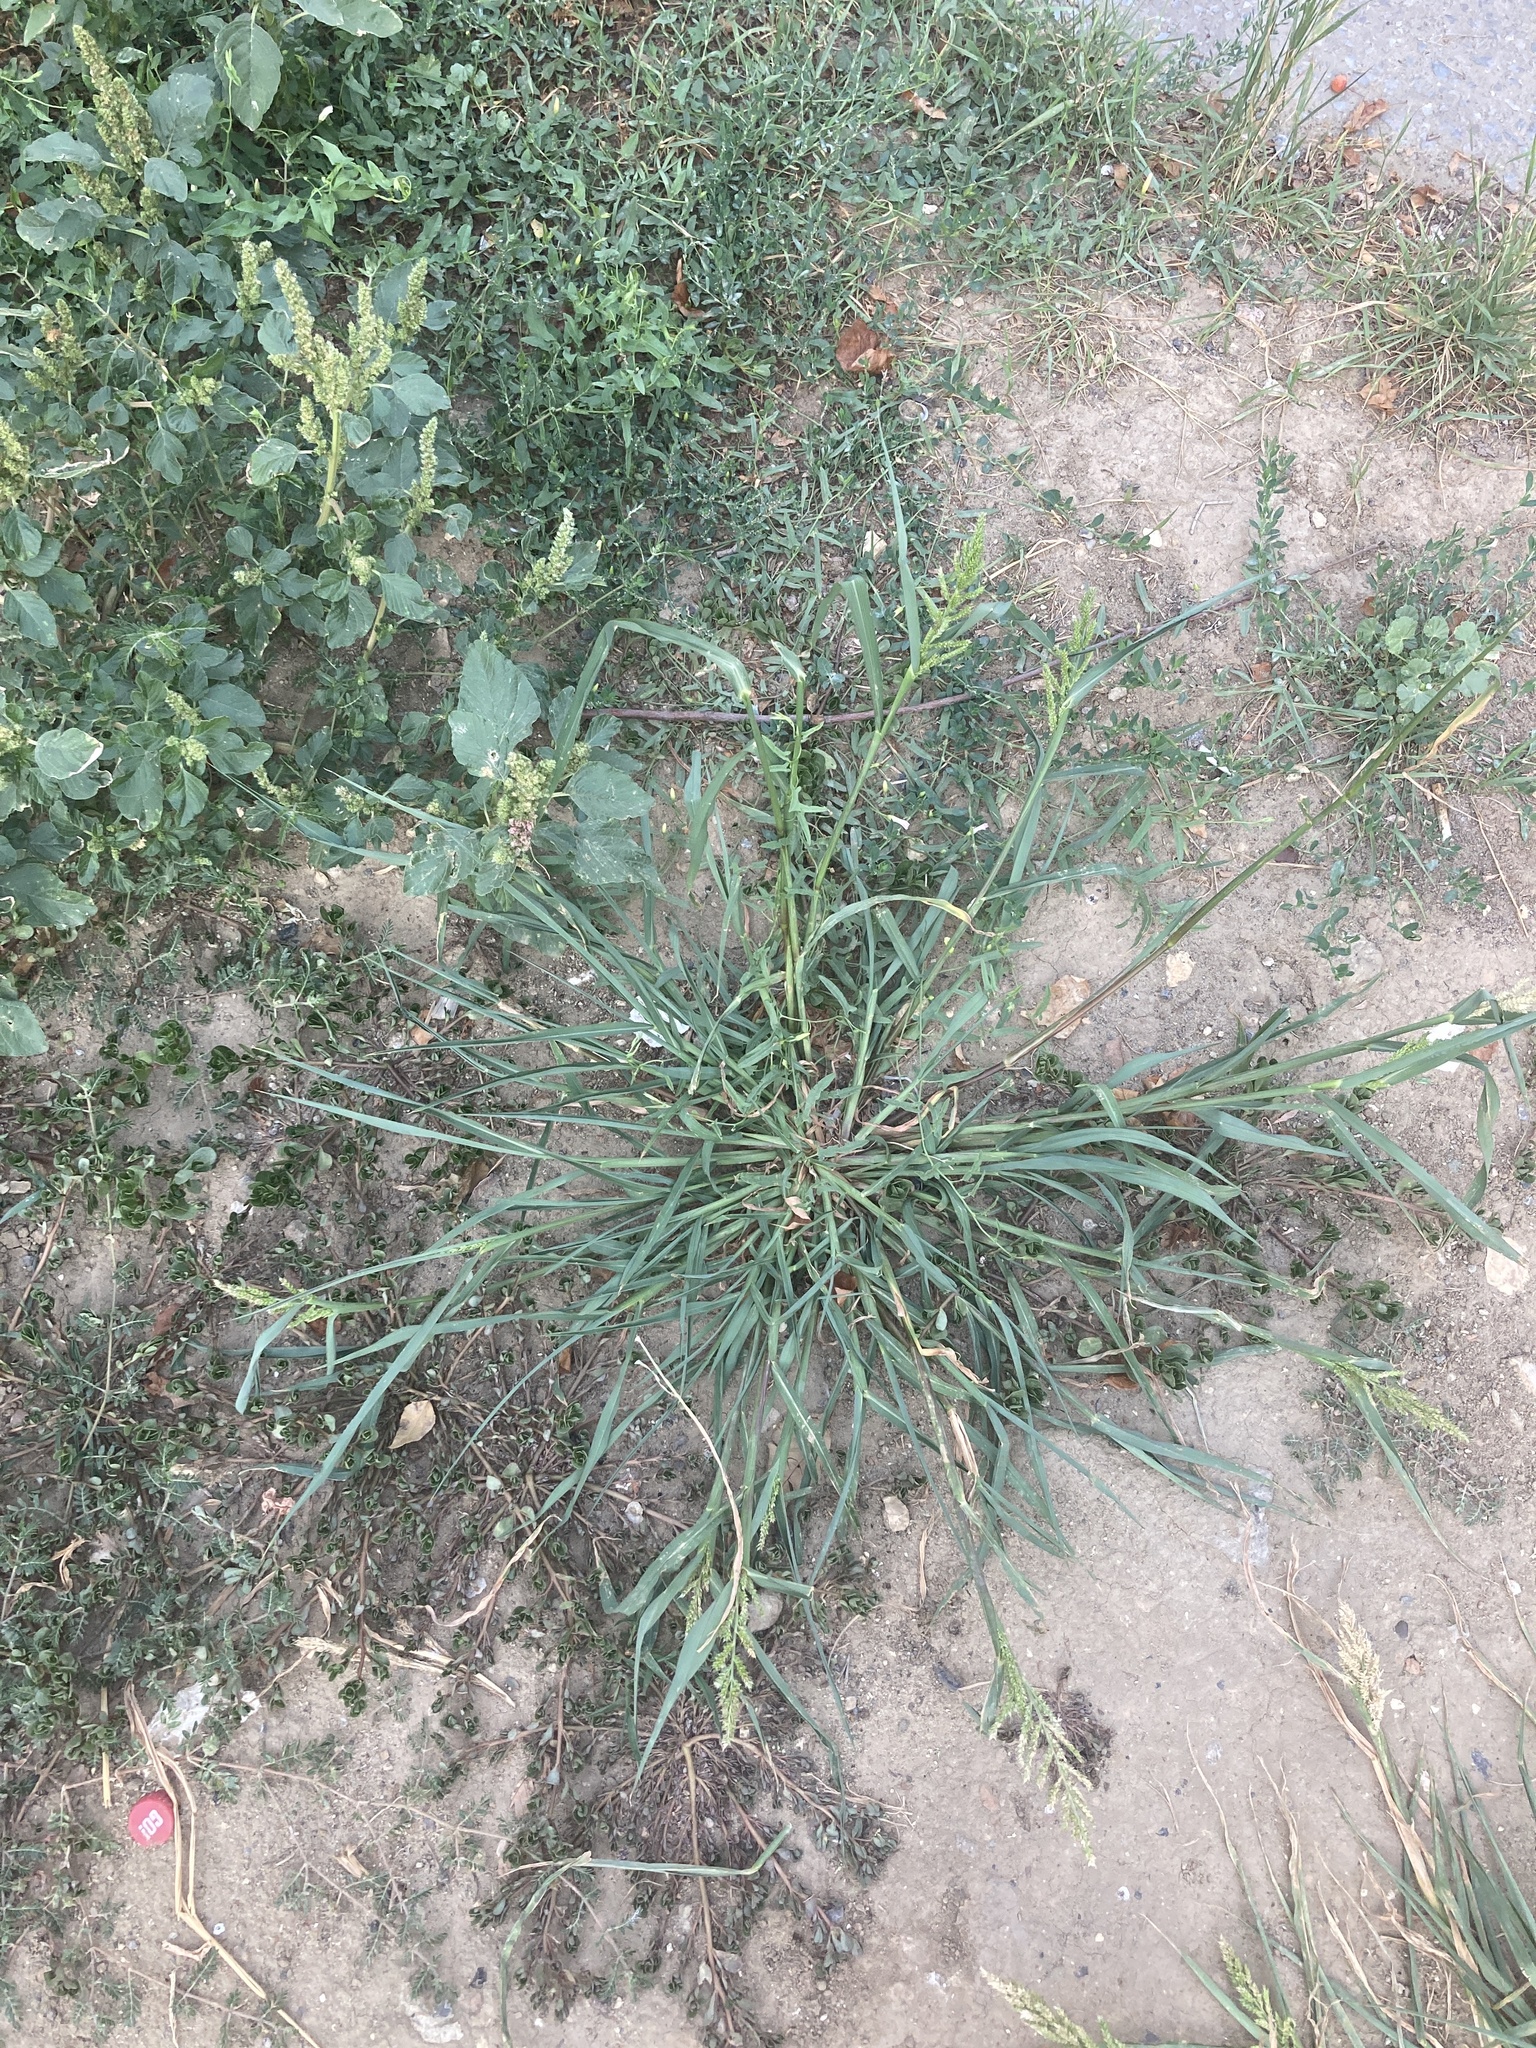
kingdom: Plantae
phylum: Tracheophyta
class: Liliopsida
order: Poales
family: Poaceae
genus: Echinochloa
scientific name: Echinochloa crus-galli
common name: Cockspur
